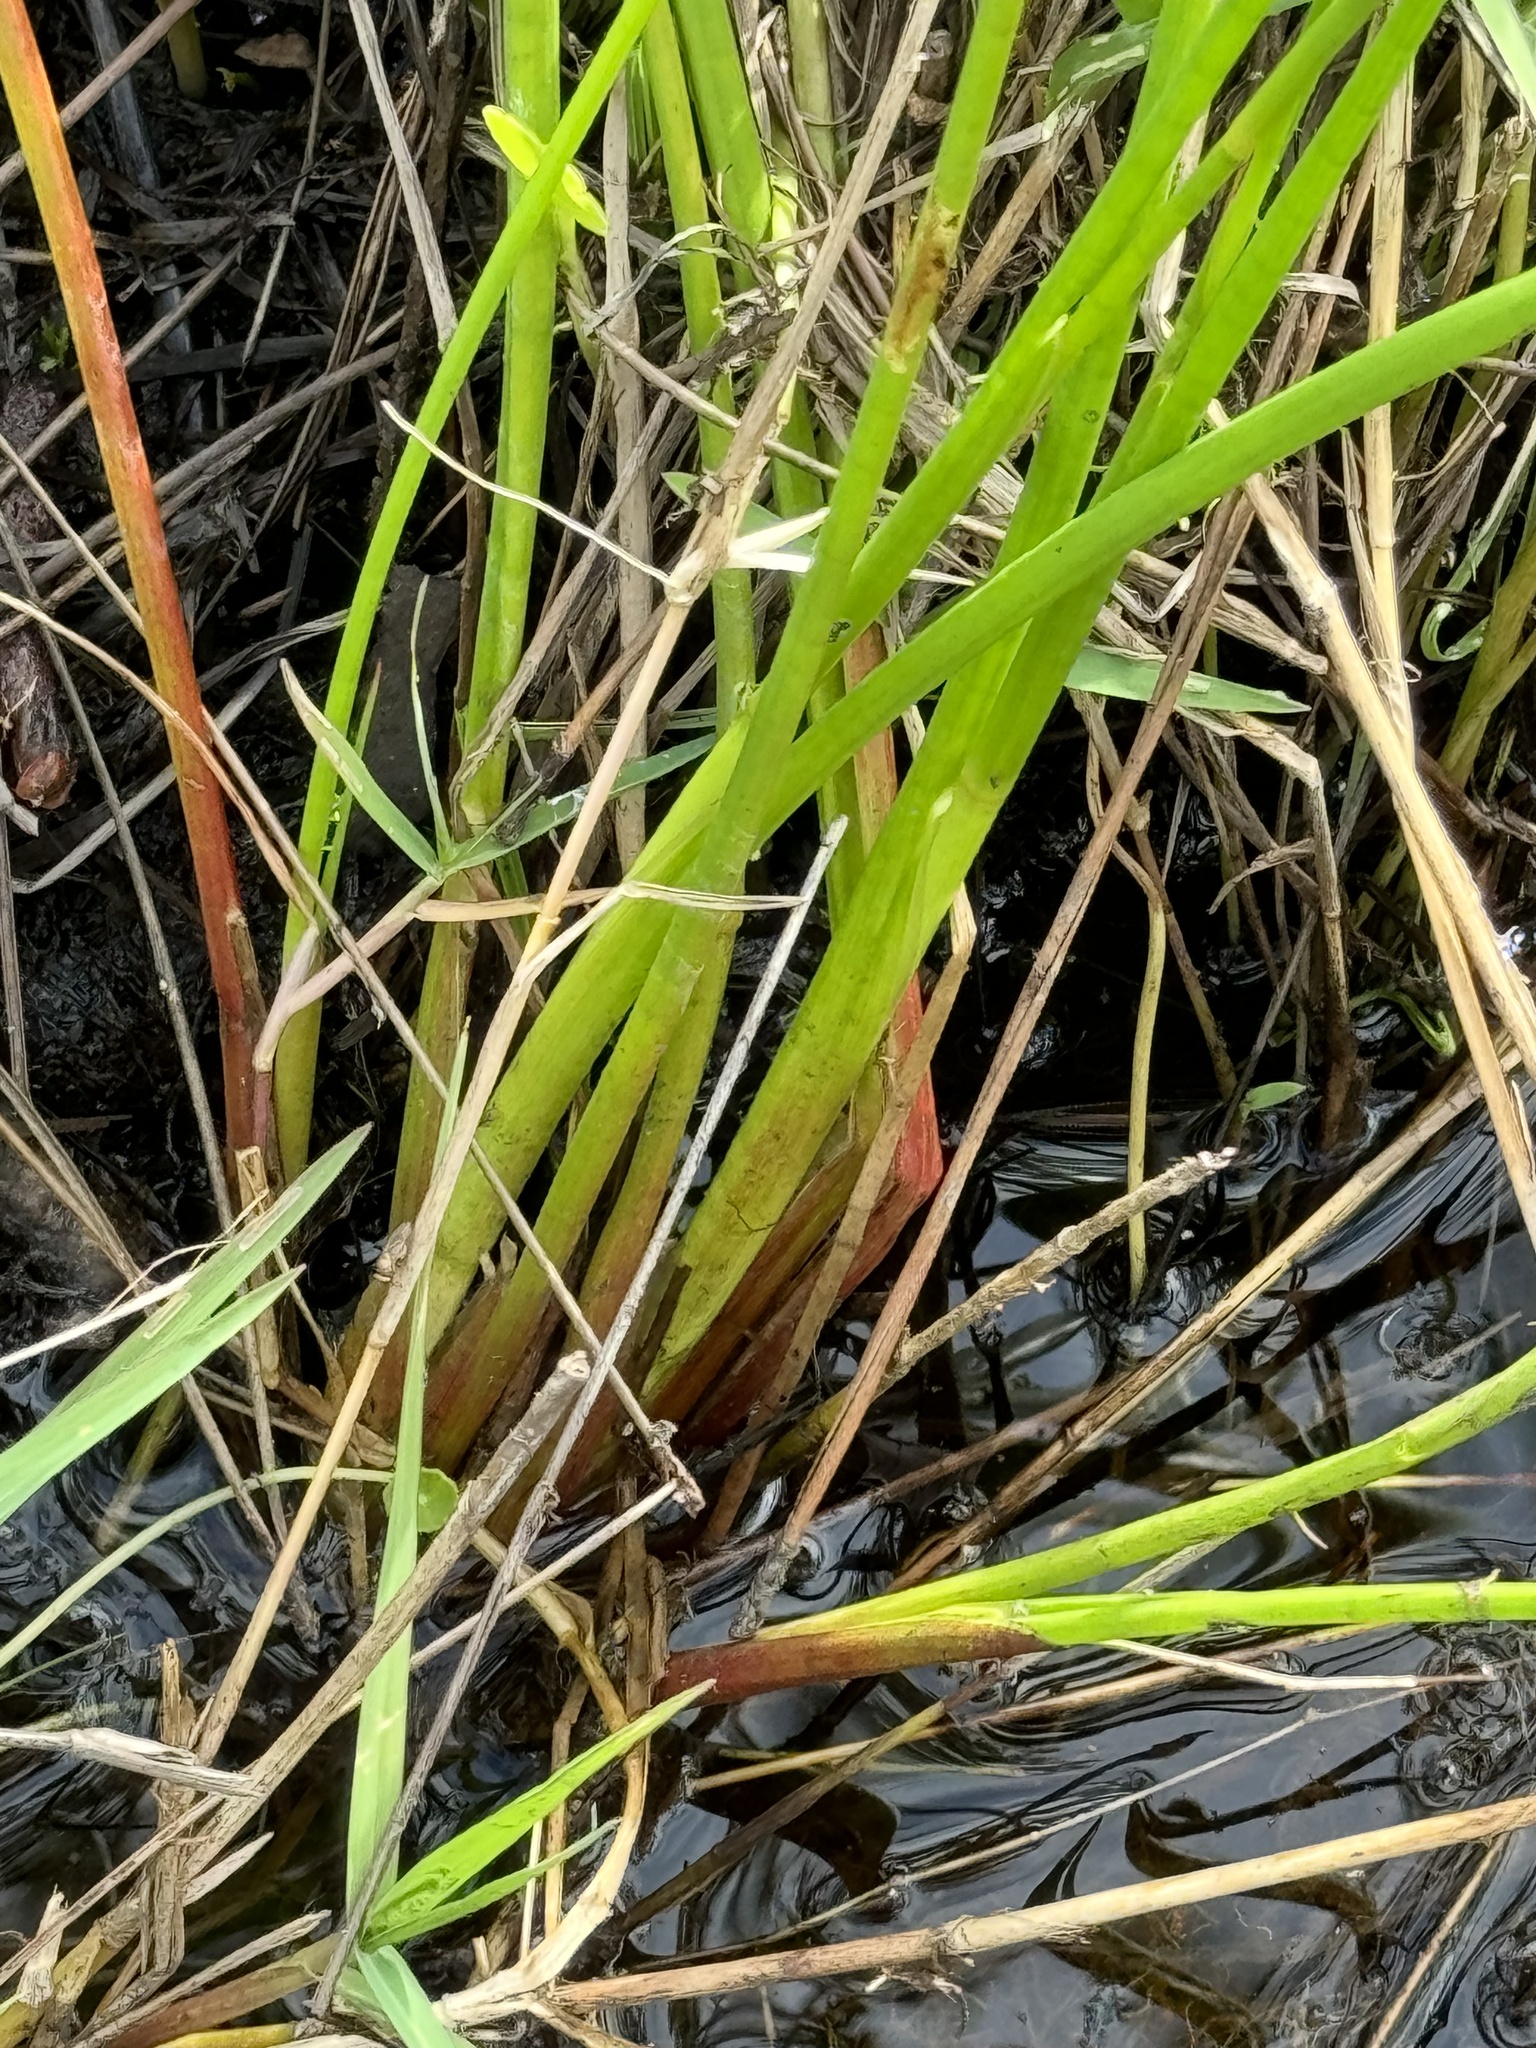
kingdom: Plantae
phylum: Tracheophyta
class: Liliopsida
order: Poales
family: Juncaceae
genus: Juncus
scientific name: Juncus effusus
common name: Soft rush
